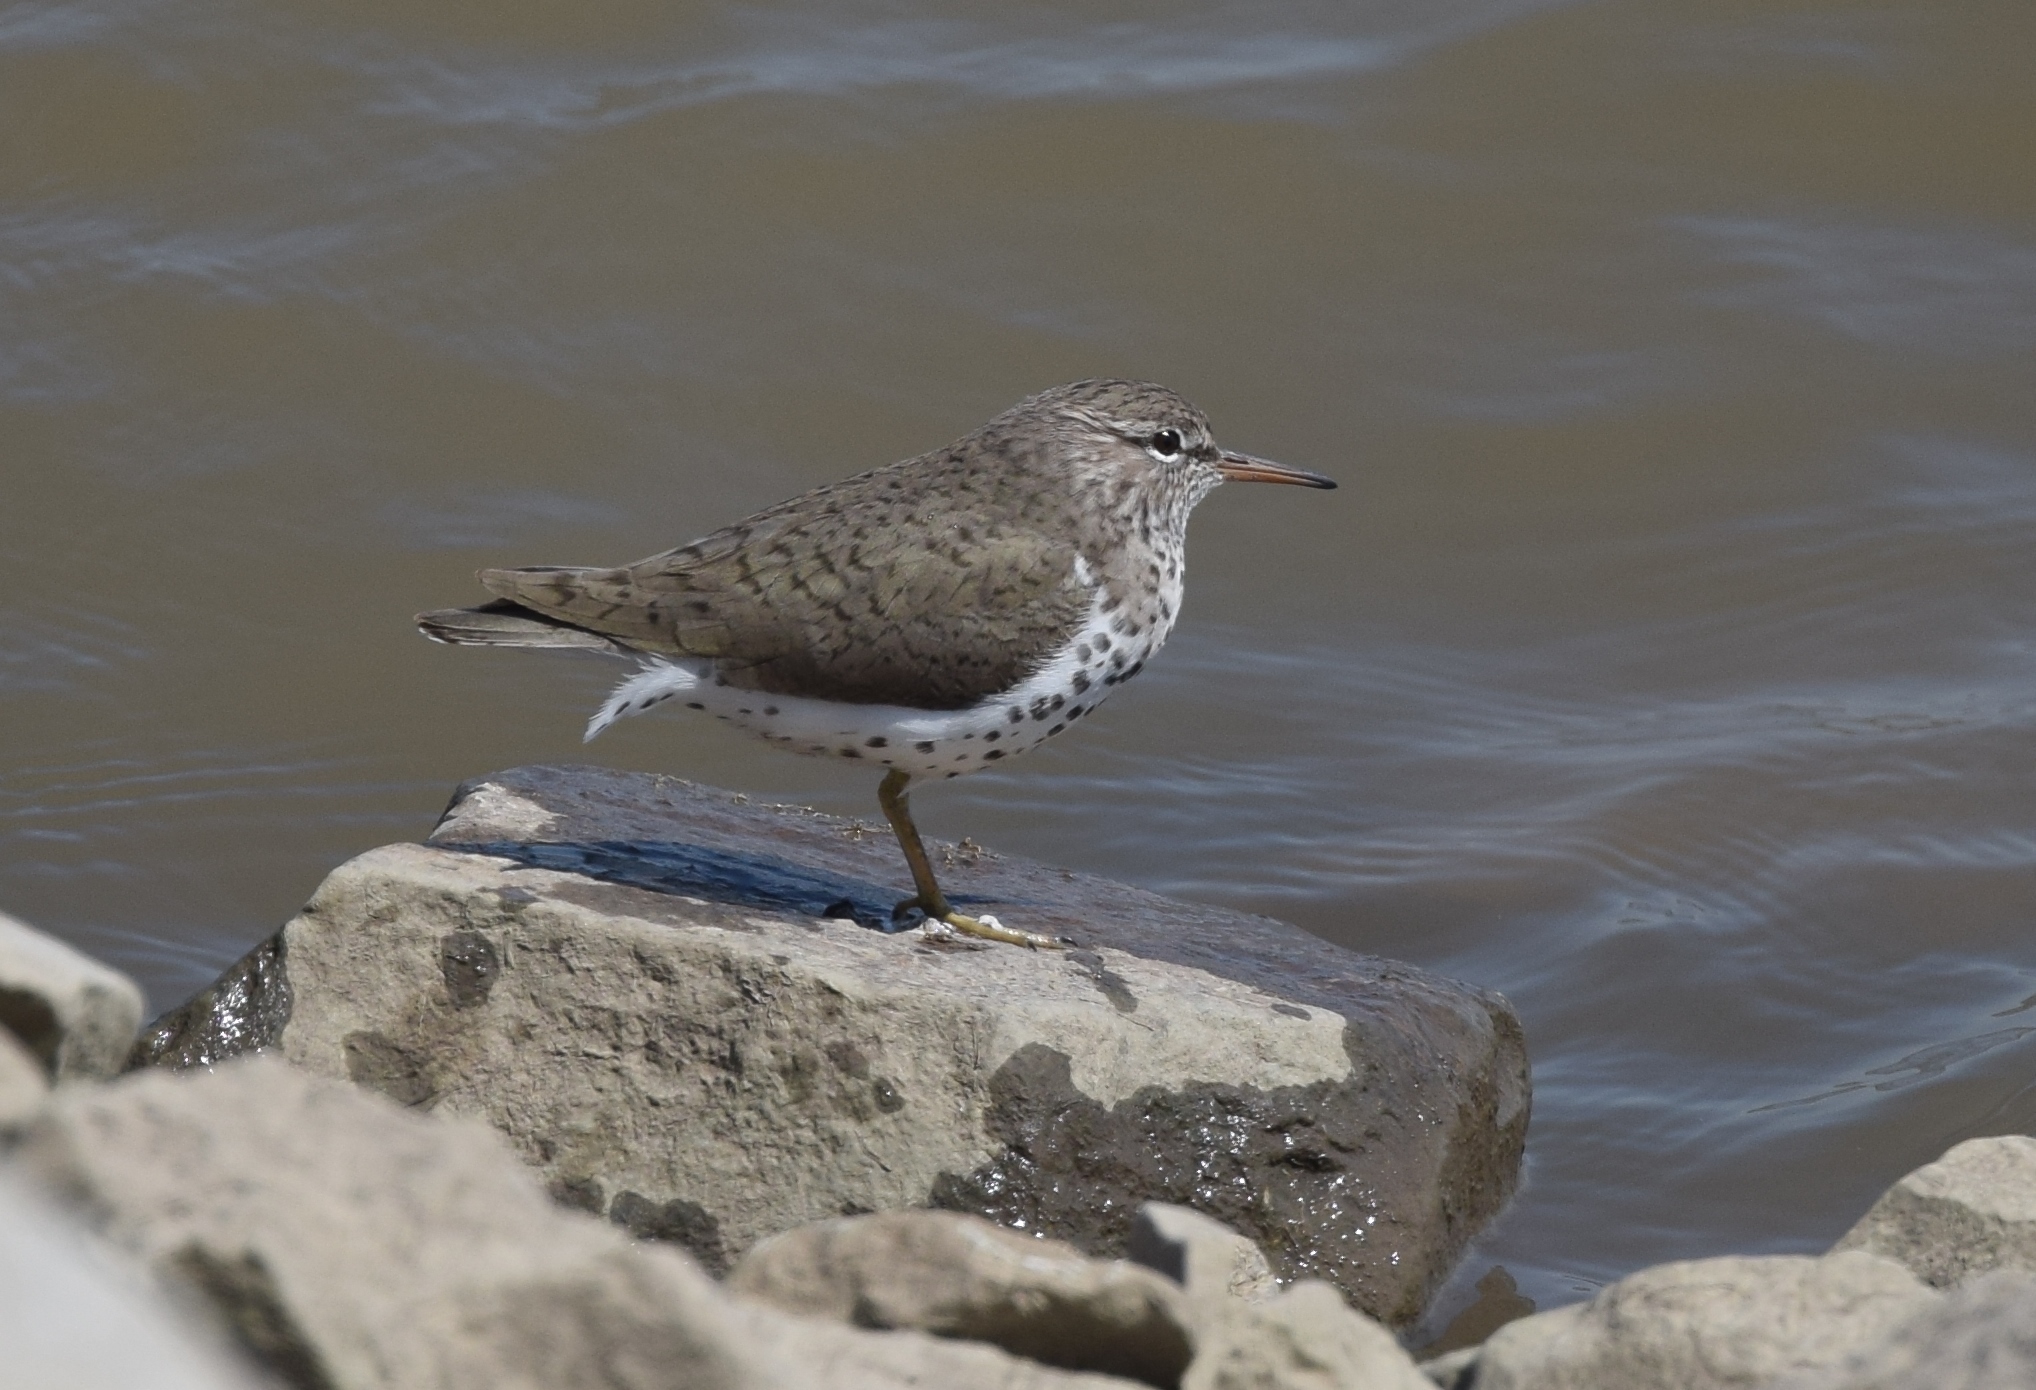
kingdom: Animalia
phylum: Chordata
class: Aves
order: Charadriiformes
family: Scolopacidae
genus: Actitis
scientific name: Actitis macularius
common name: Spotted sandpiper
